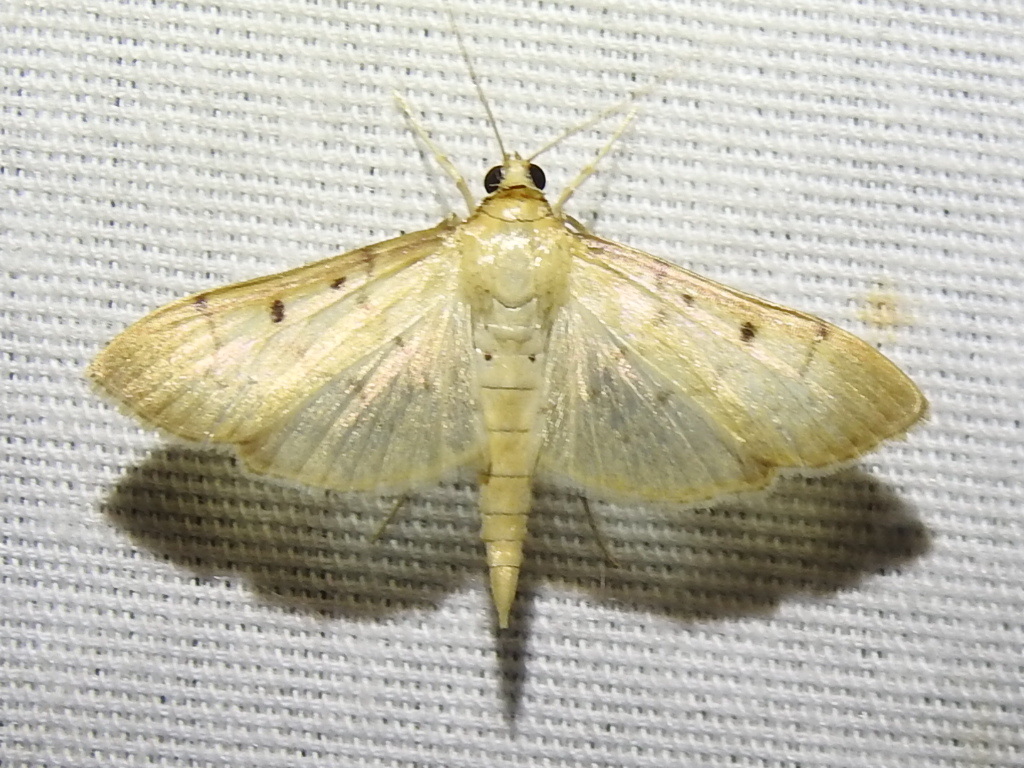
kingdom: Animalia
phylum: Arthropoda
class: Insecta
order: Lepidoptera
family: Crambidae
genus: Herpetogramma
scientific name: Herpetogramma bipunctalis
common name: Southern beet webworm
